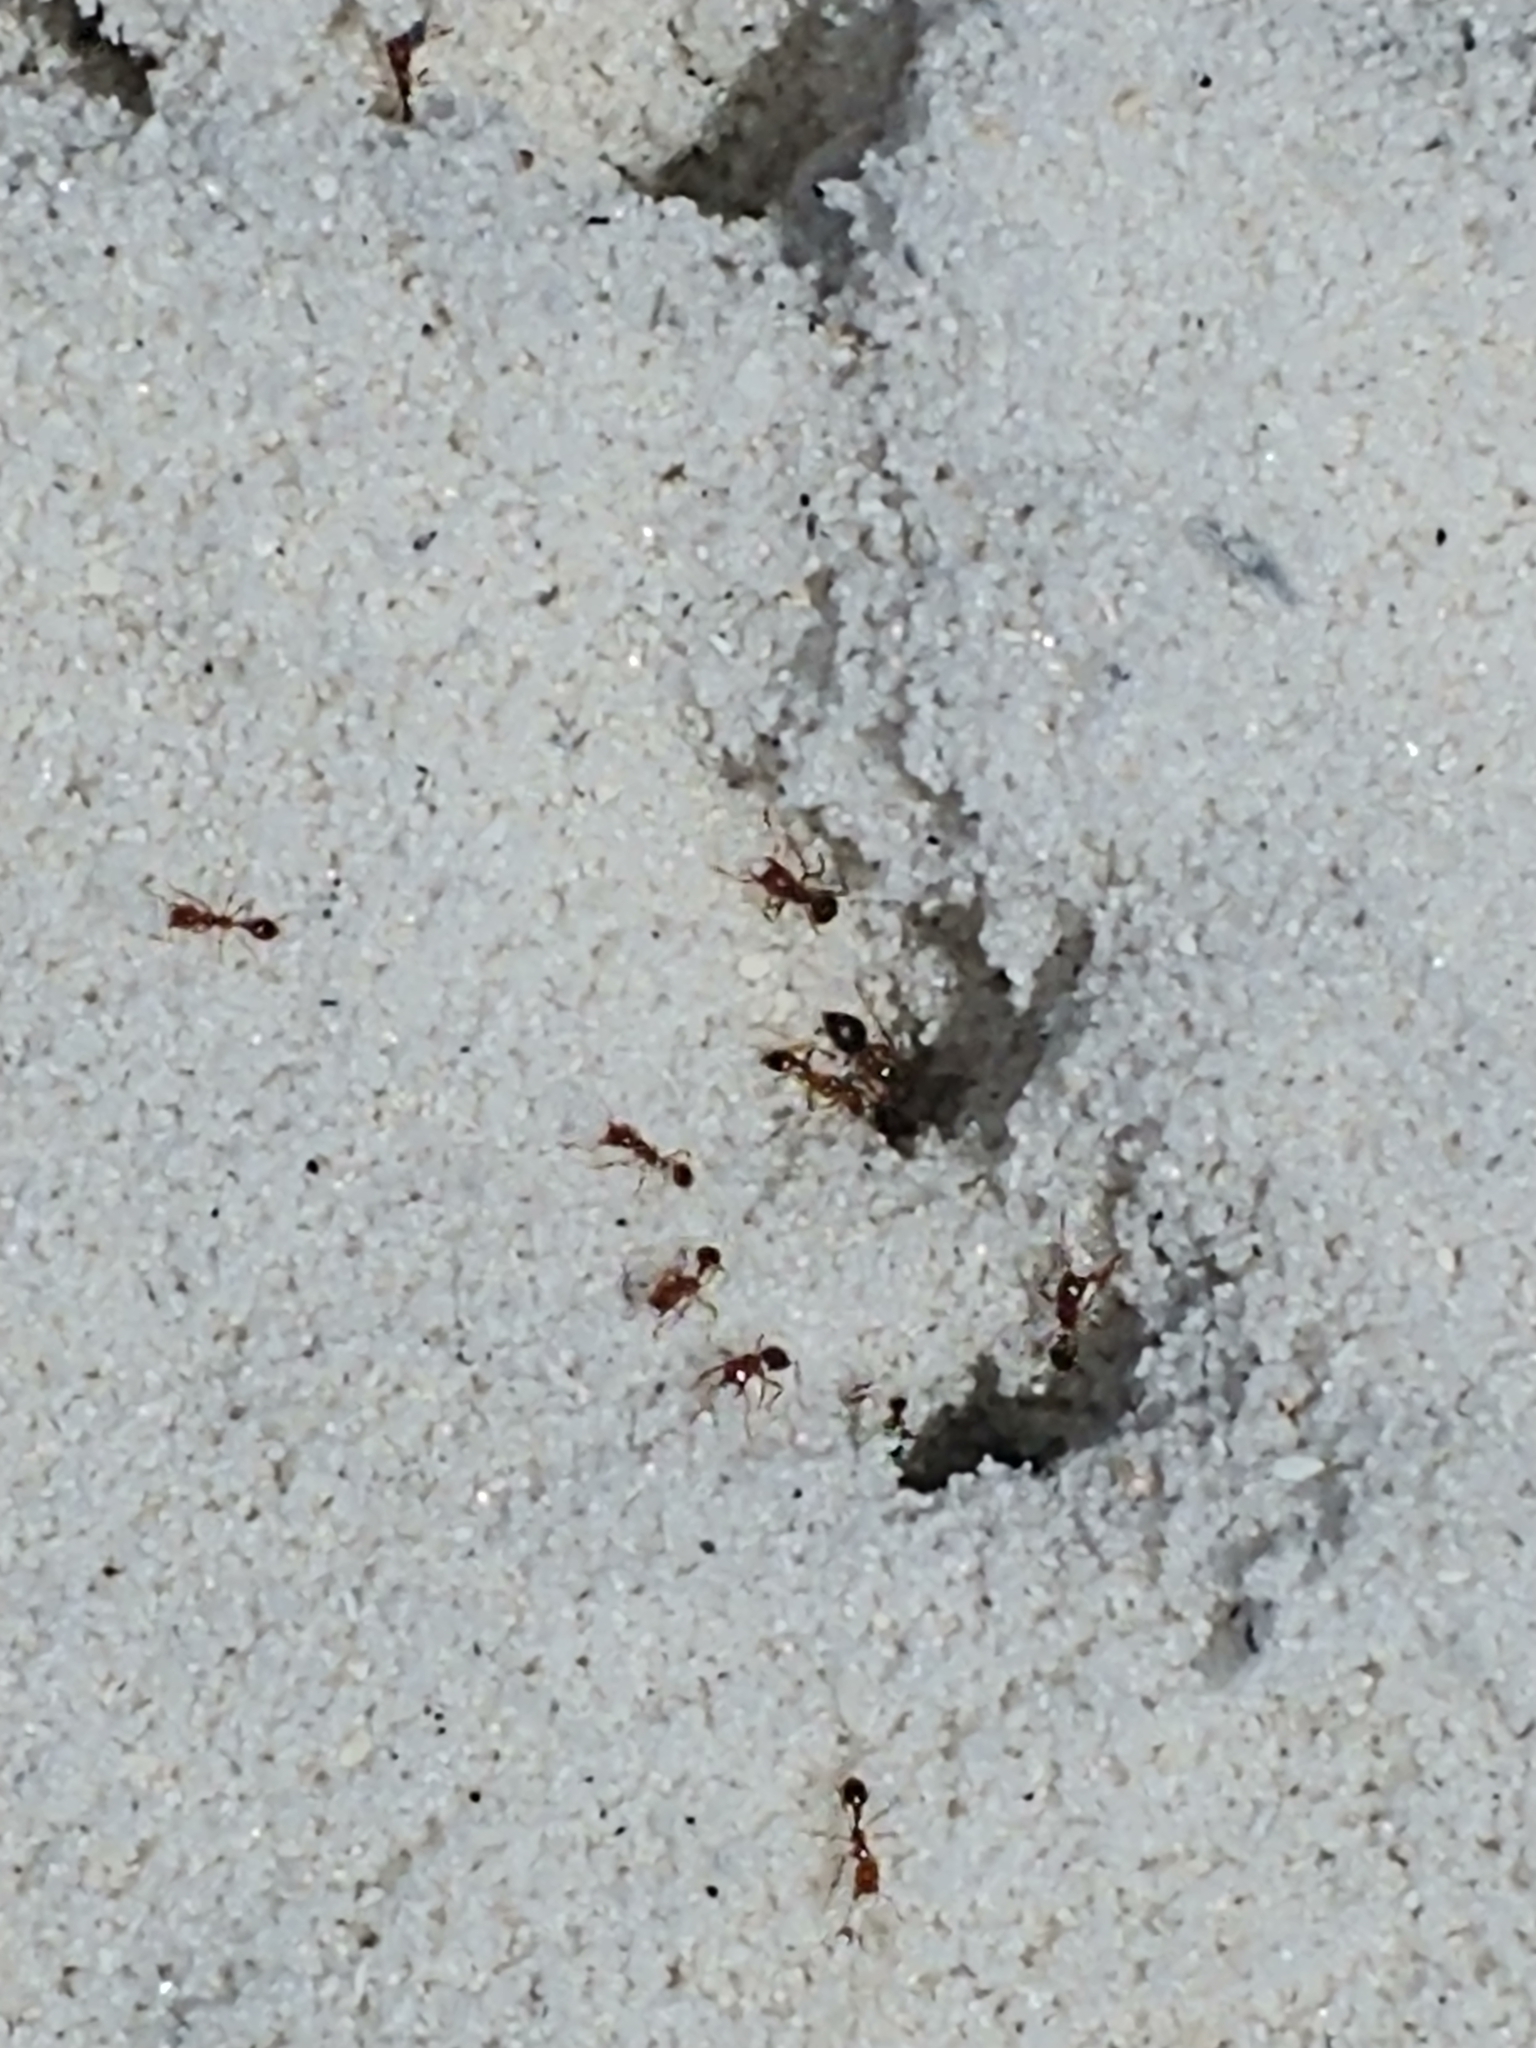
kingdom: Animalia
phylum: Arthropoda
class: Insecta
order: Hymenoptera
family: Formicidae
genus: Solenopsis
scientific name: Solenopsis invicta
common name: Red imported fire ant
